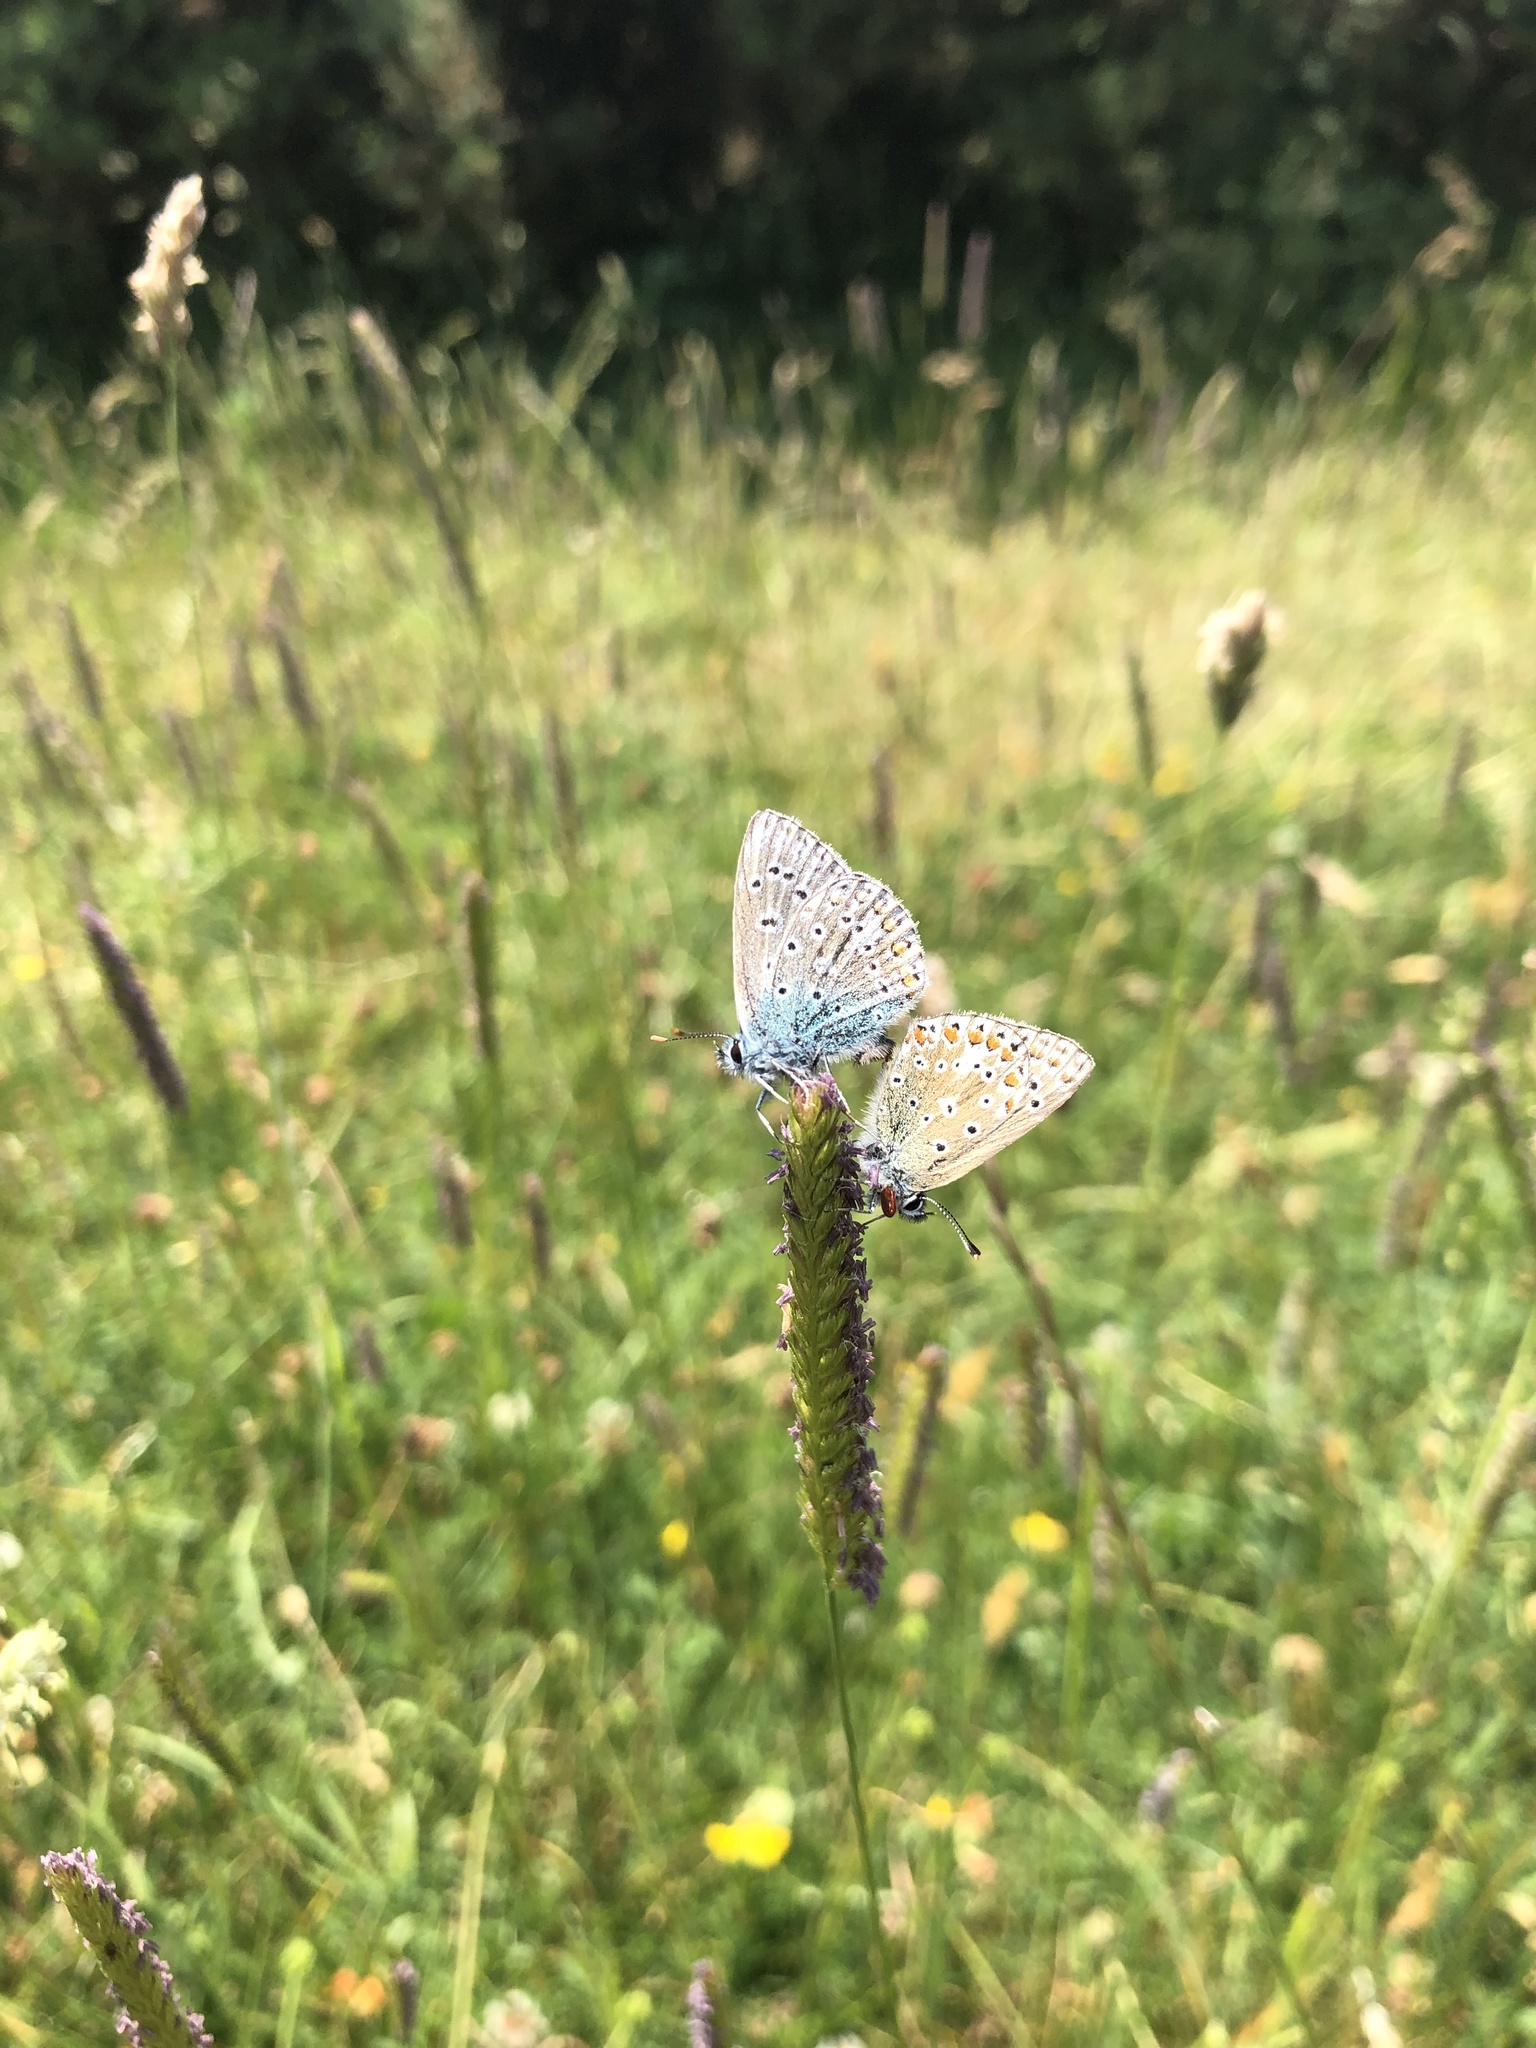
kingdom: Animalia
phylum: Arthropoda
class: Insecta
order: Lepidoptera
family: Lycaenidae
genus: Polyommatus
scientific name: Polyommatus icarus
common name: Common blue
